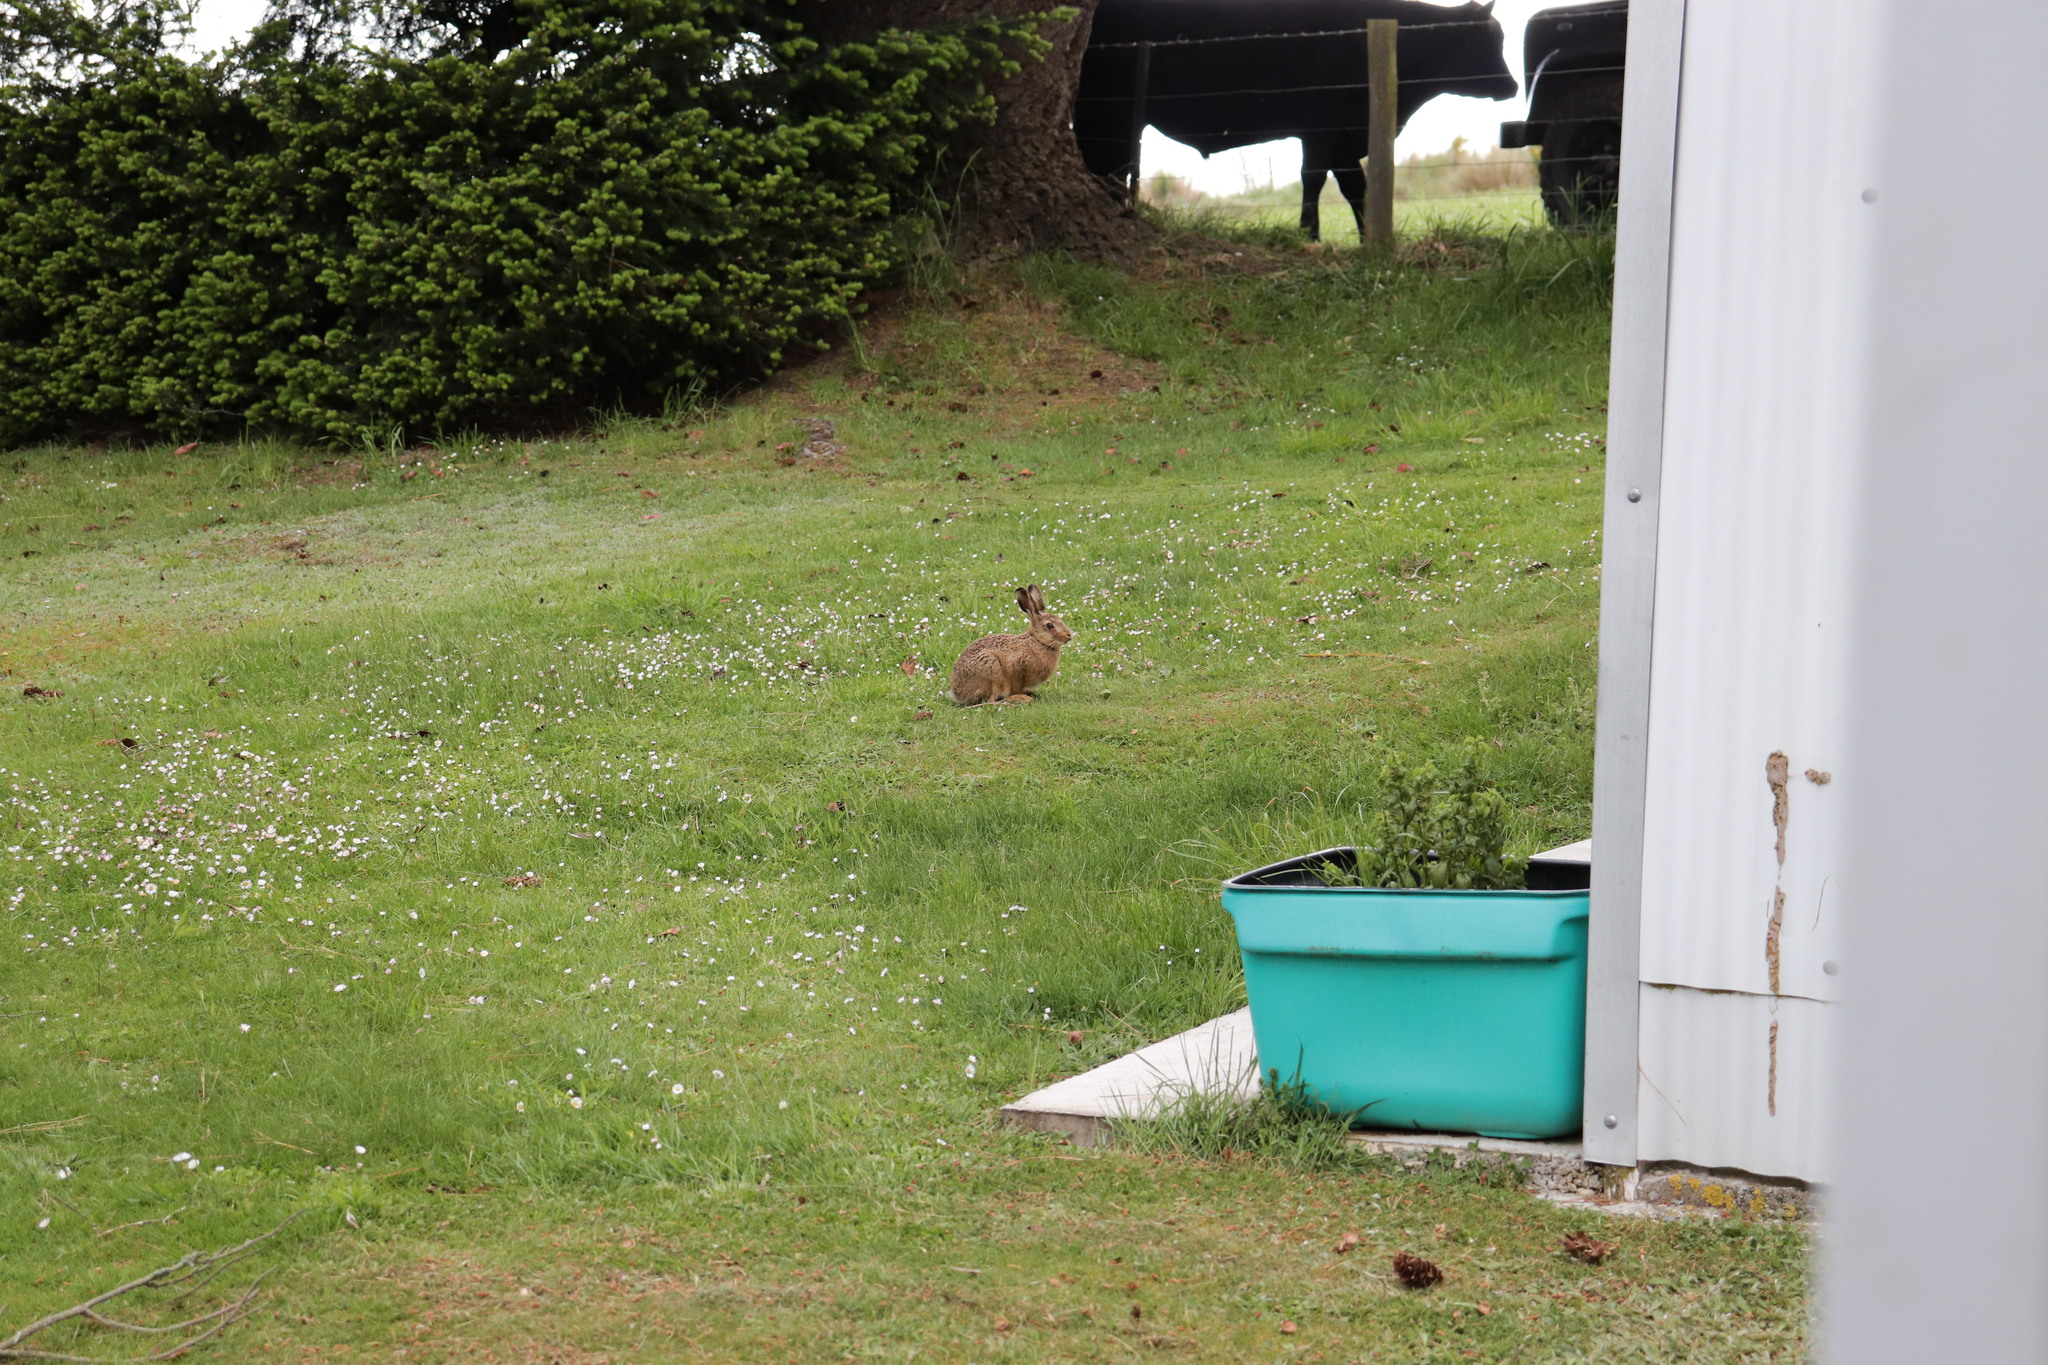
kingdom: Animalia
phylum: Chordata
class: Mammalia
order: Lagomorpha
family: Leporidae
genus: Oryctolagus
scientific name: Oryctolagus cuniculus
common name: European rabbit
